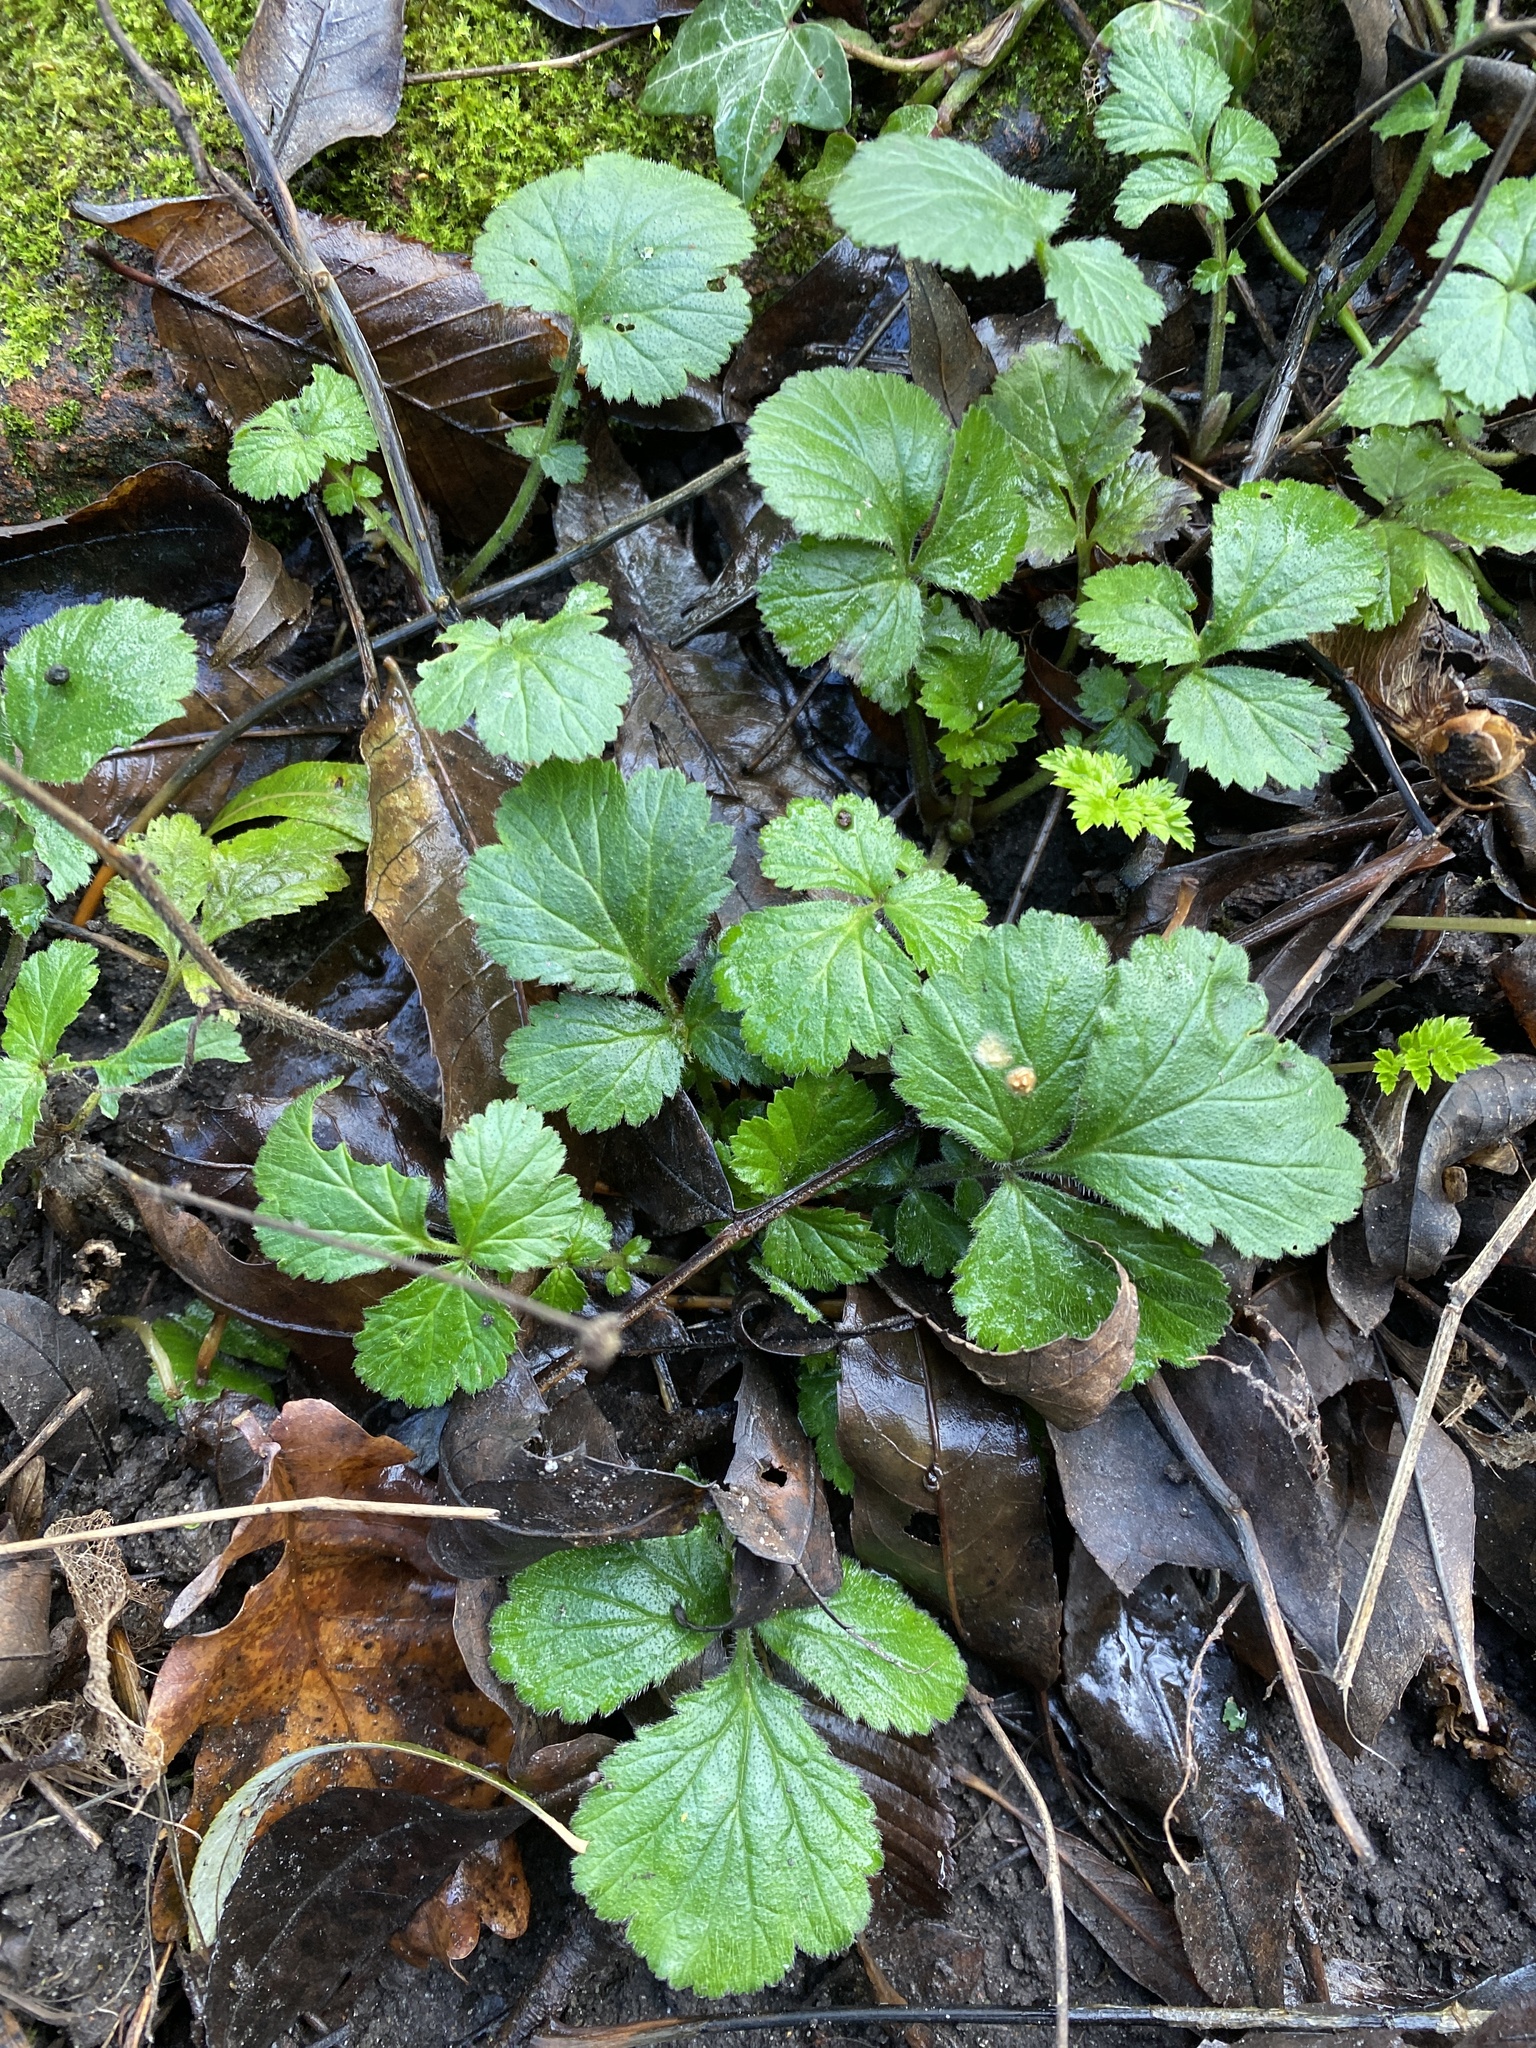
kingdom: Plantae
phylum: Tracheophyta
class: Magnoliopsida
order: Rosales
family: Rosaceae
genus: Geum
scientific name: Geum urbanum
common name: Wood avens
